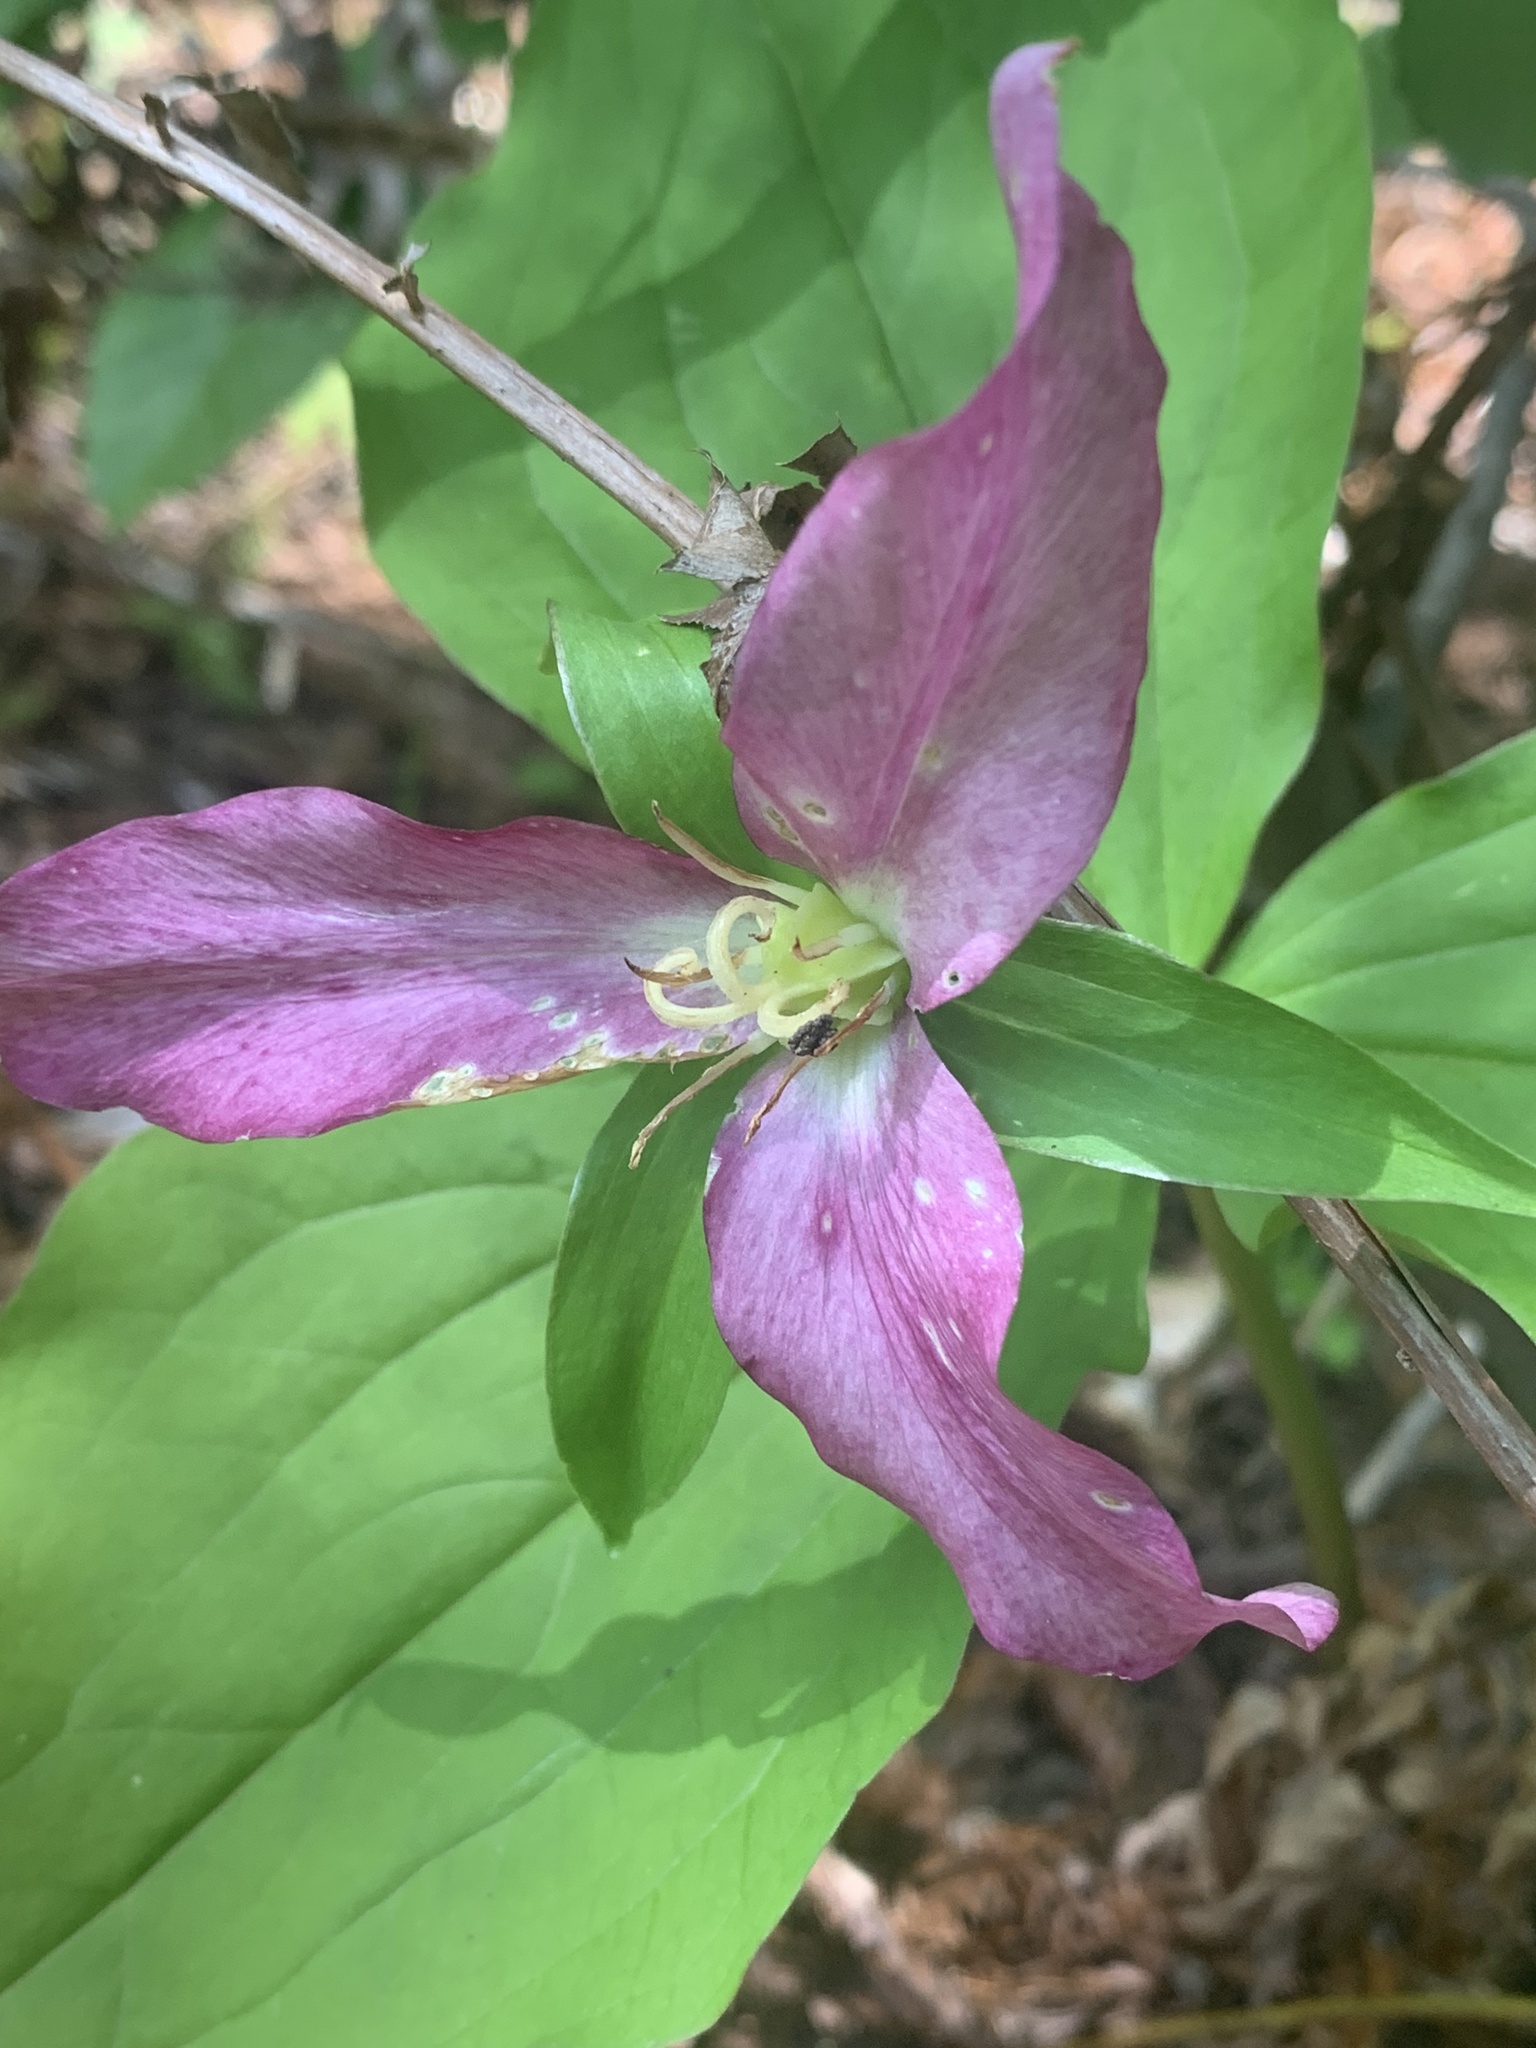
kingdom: Plantae
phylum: Tracheophyta
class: Liliopsida
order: Liliales
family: Melanthiaceae
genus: Trillium
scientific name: Trillium ovatum
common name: Pacific trillium
